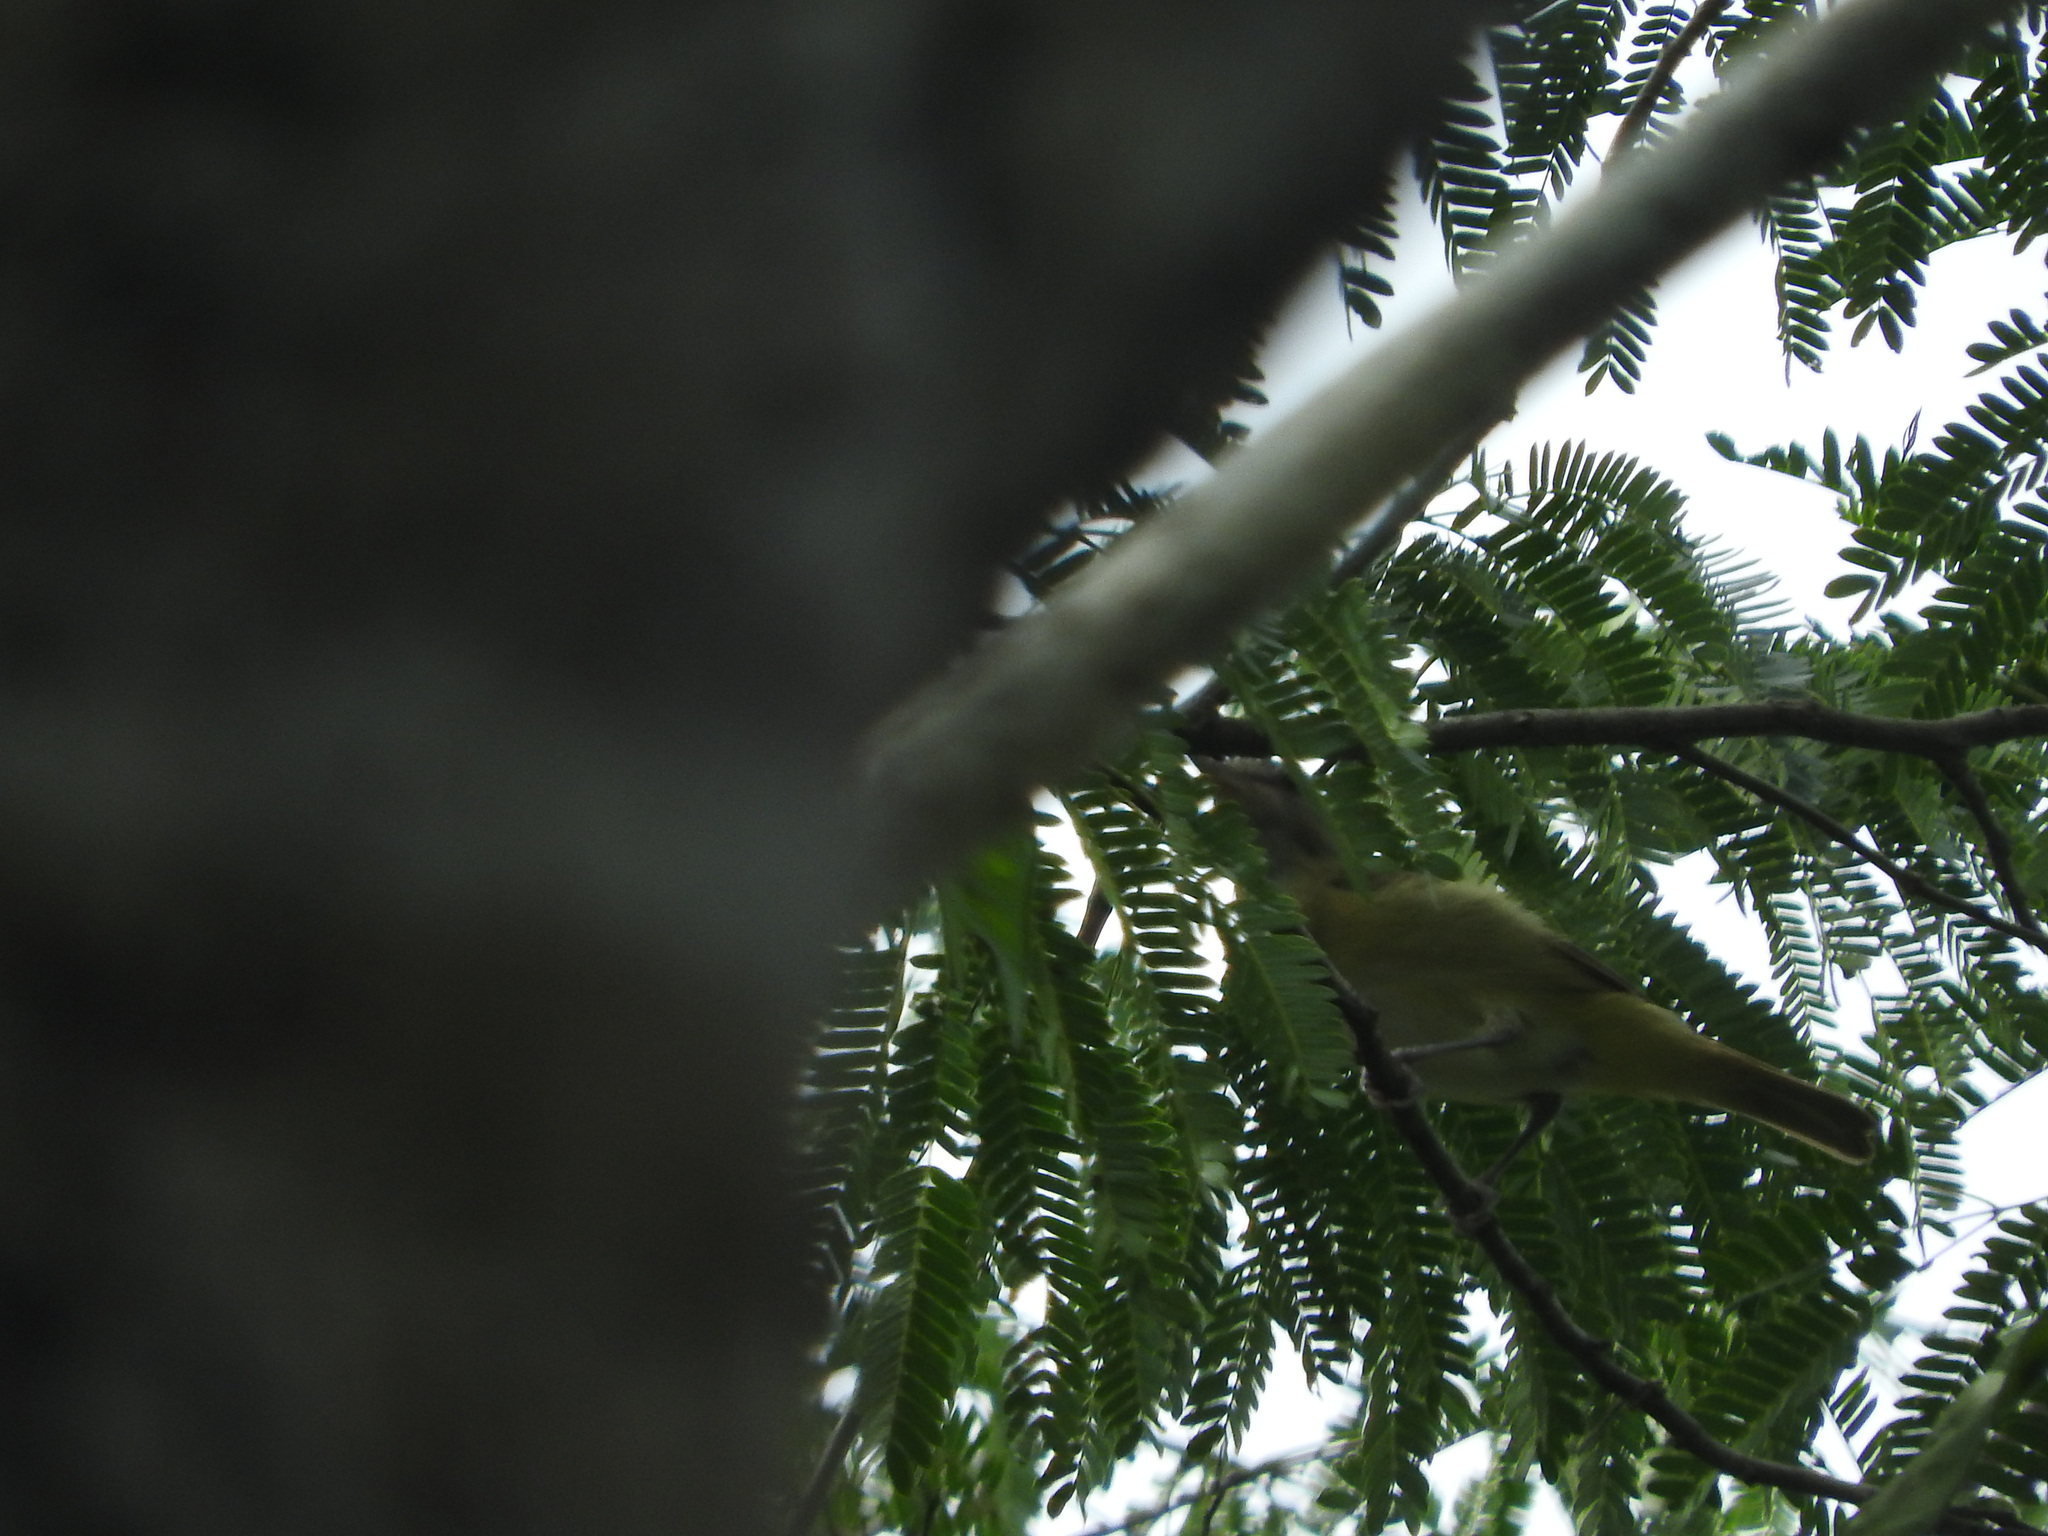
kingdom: Animalia
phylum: Chordata
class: Aves
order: Passeriformes
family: Vireonidae
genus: Vireo
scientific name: Vireo flavoviridis
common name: Yellow-green vireo
